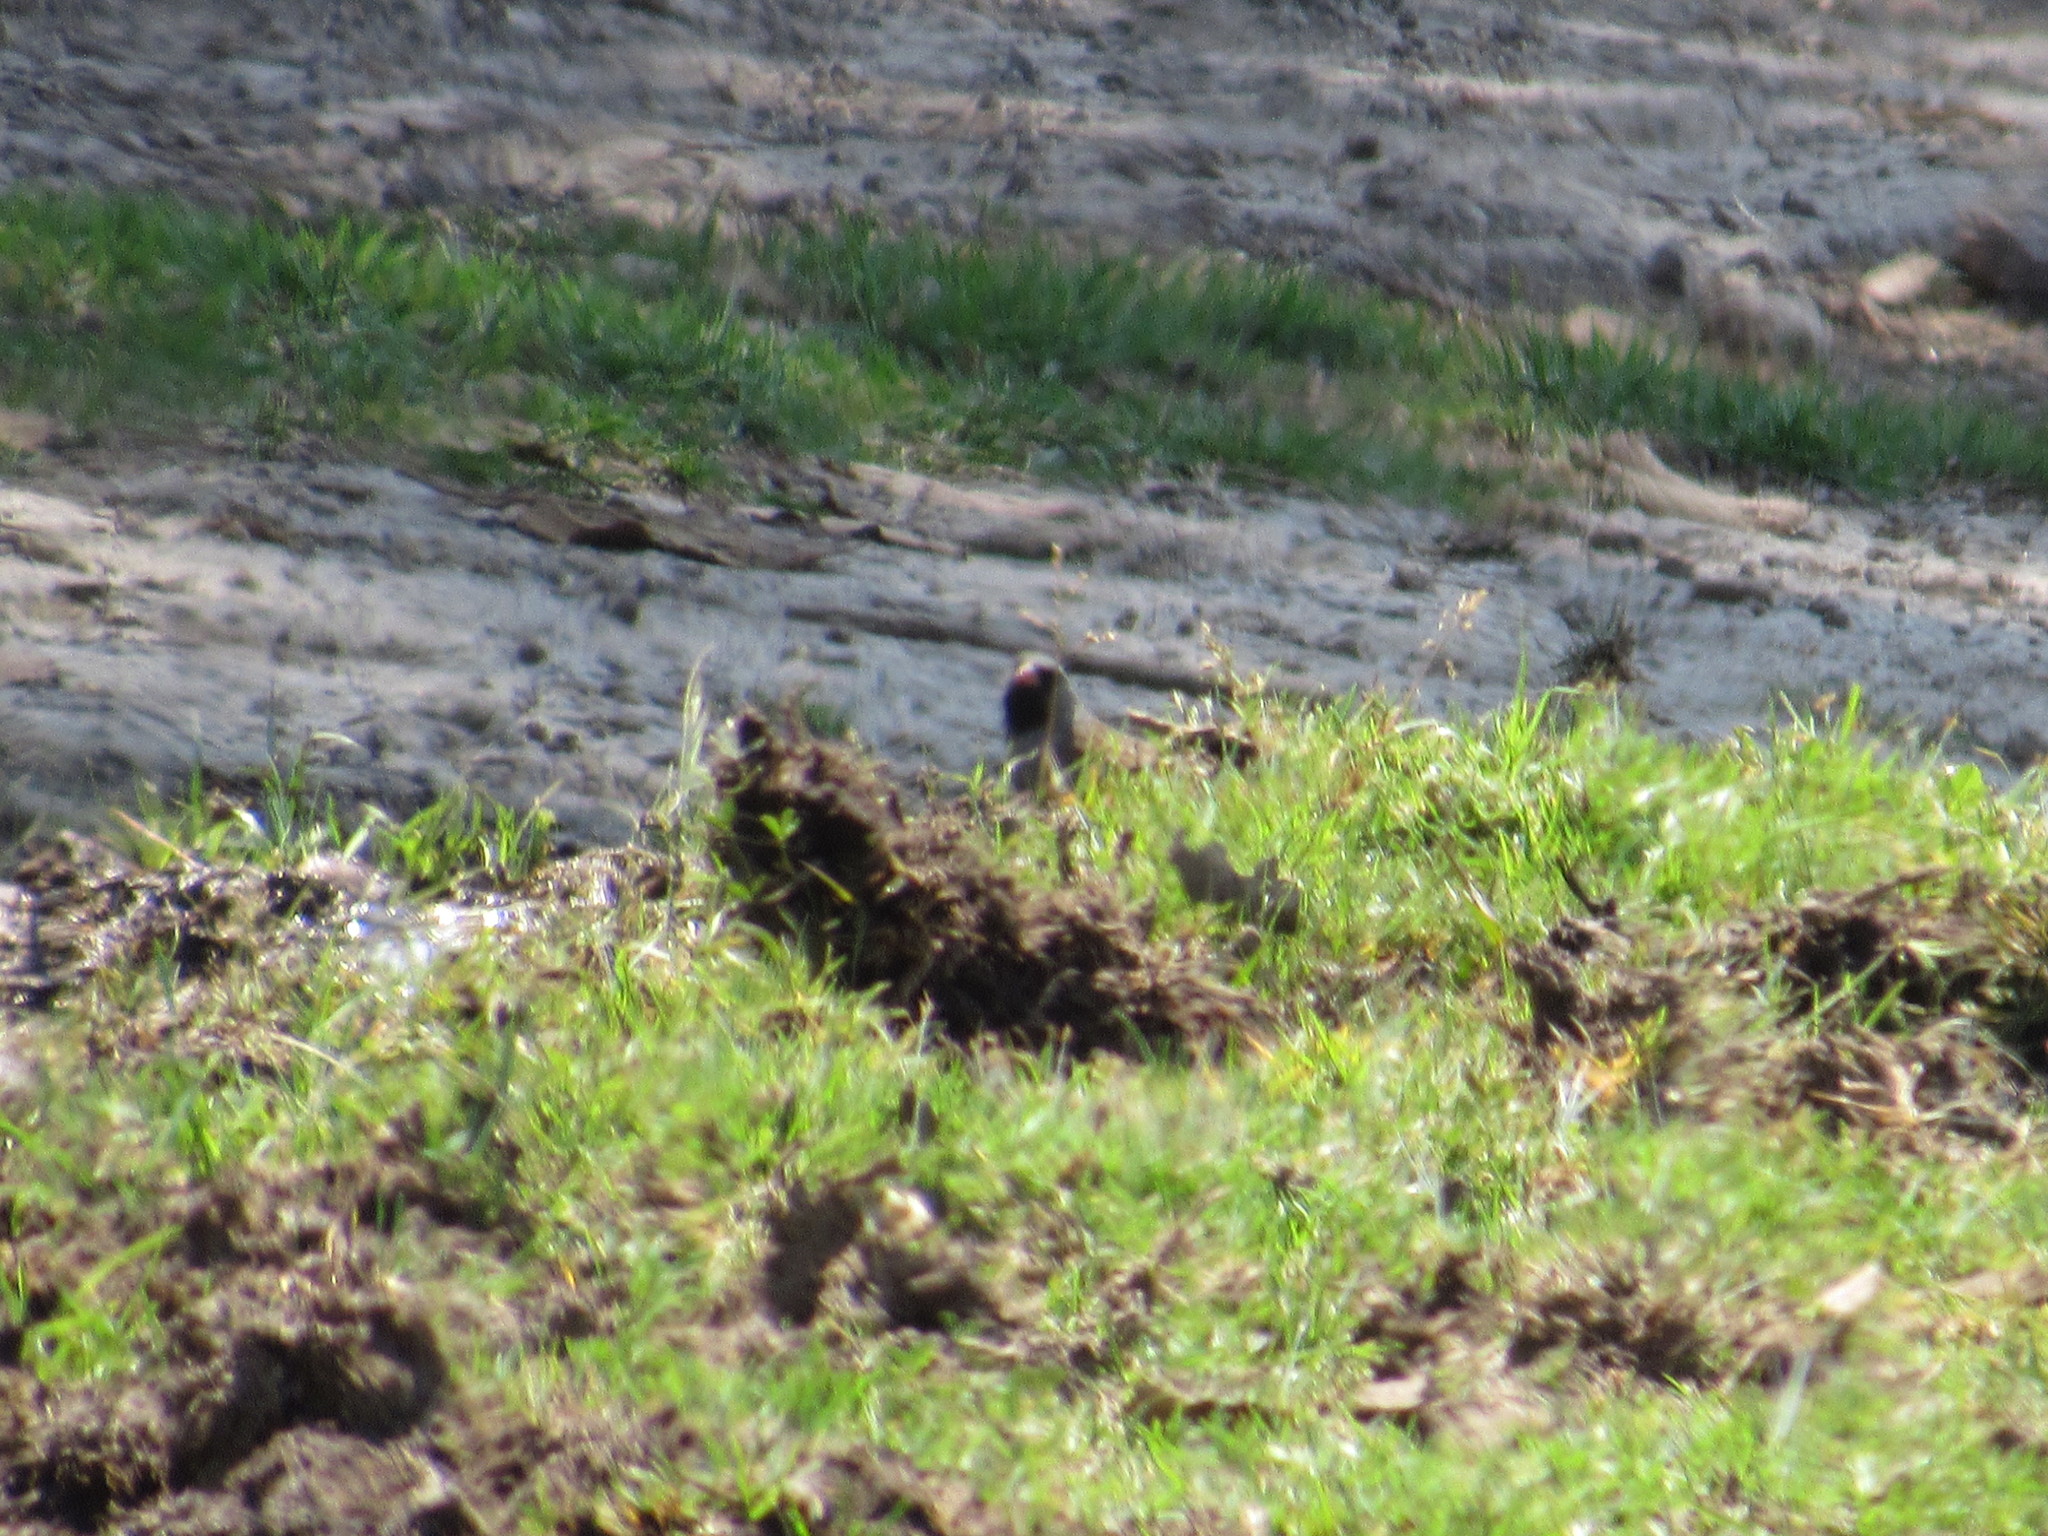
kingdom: Animalia
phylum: Chordata
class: Aves
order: Passeriformes
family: Passerellidae
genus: Spizella
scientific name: Spizella atrogularis
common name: Black-chinned sparrow
